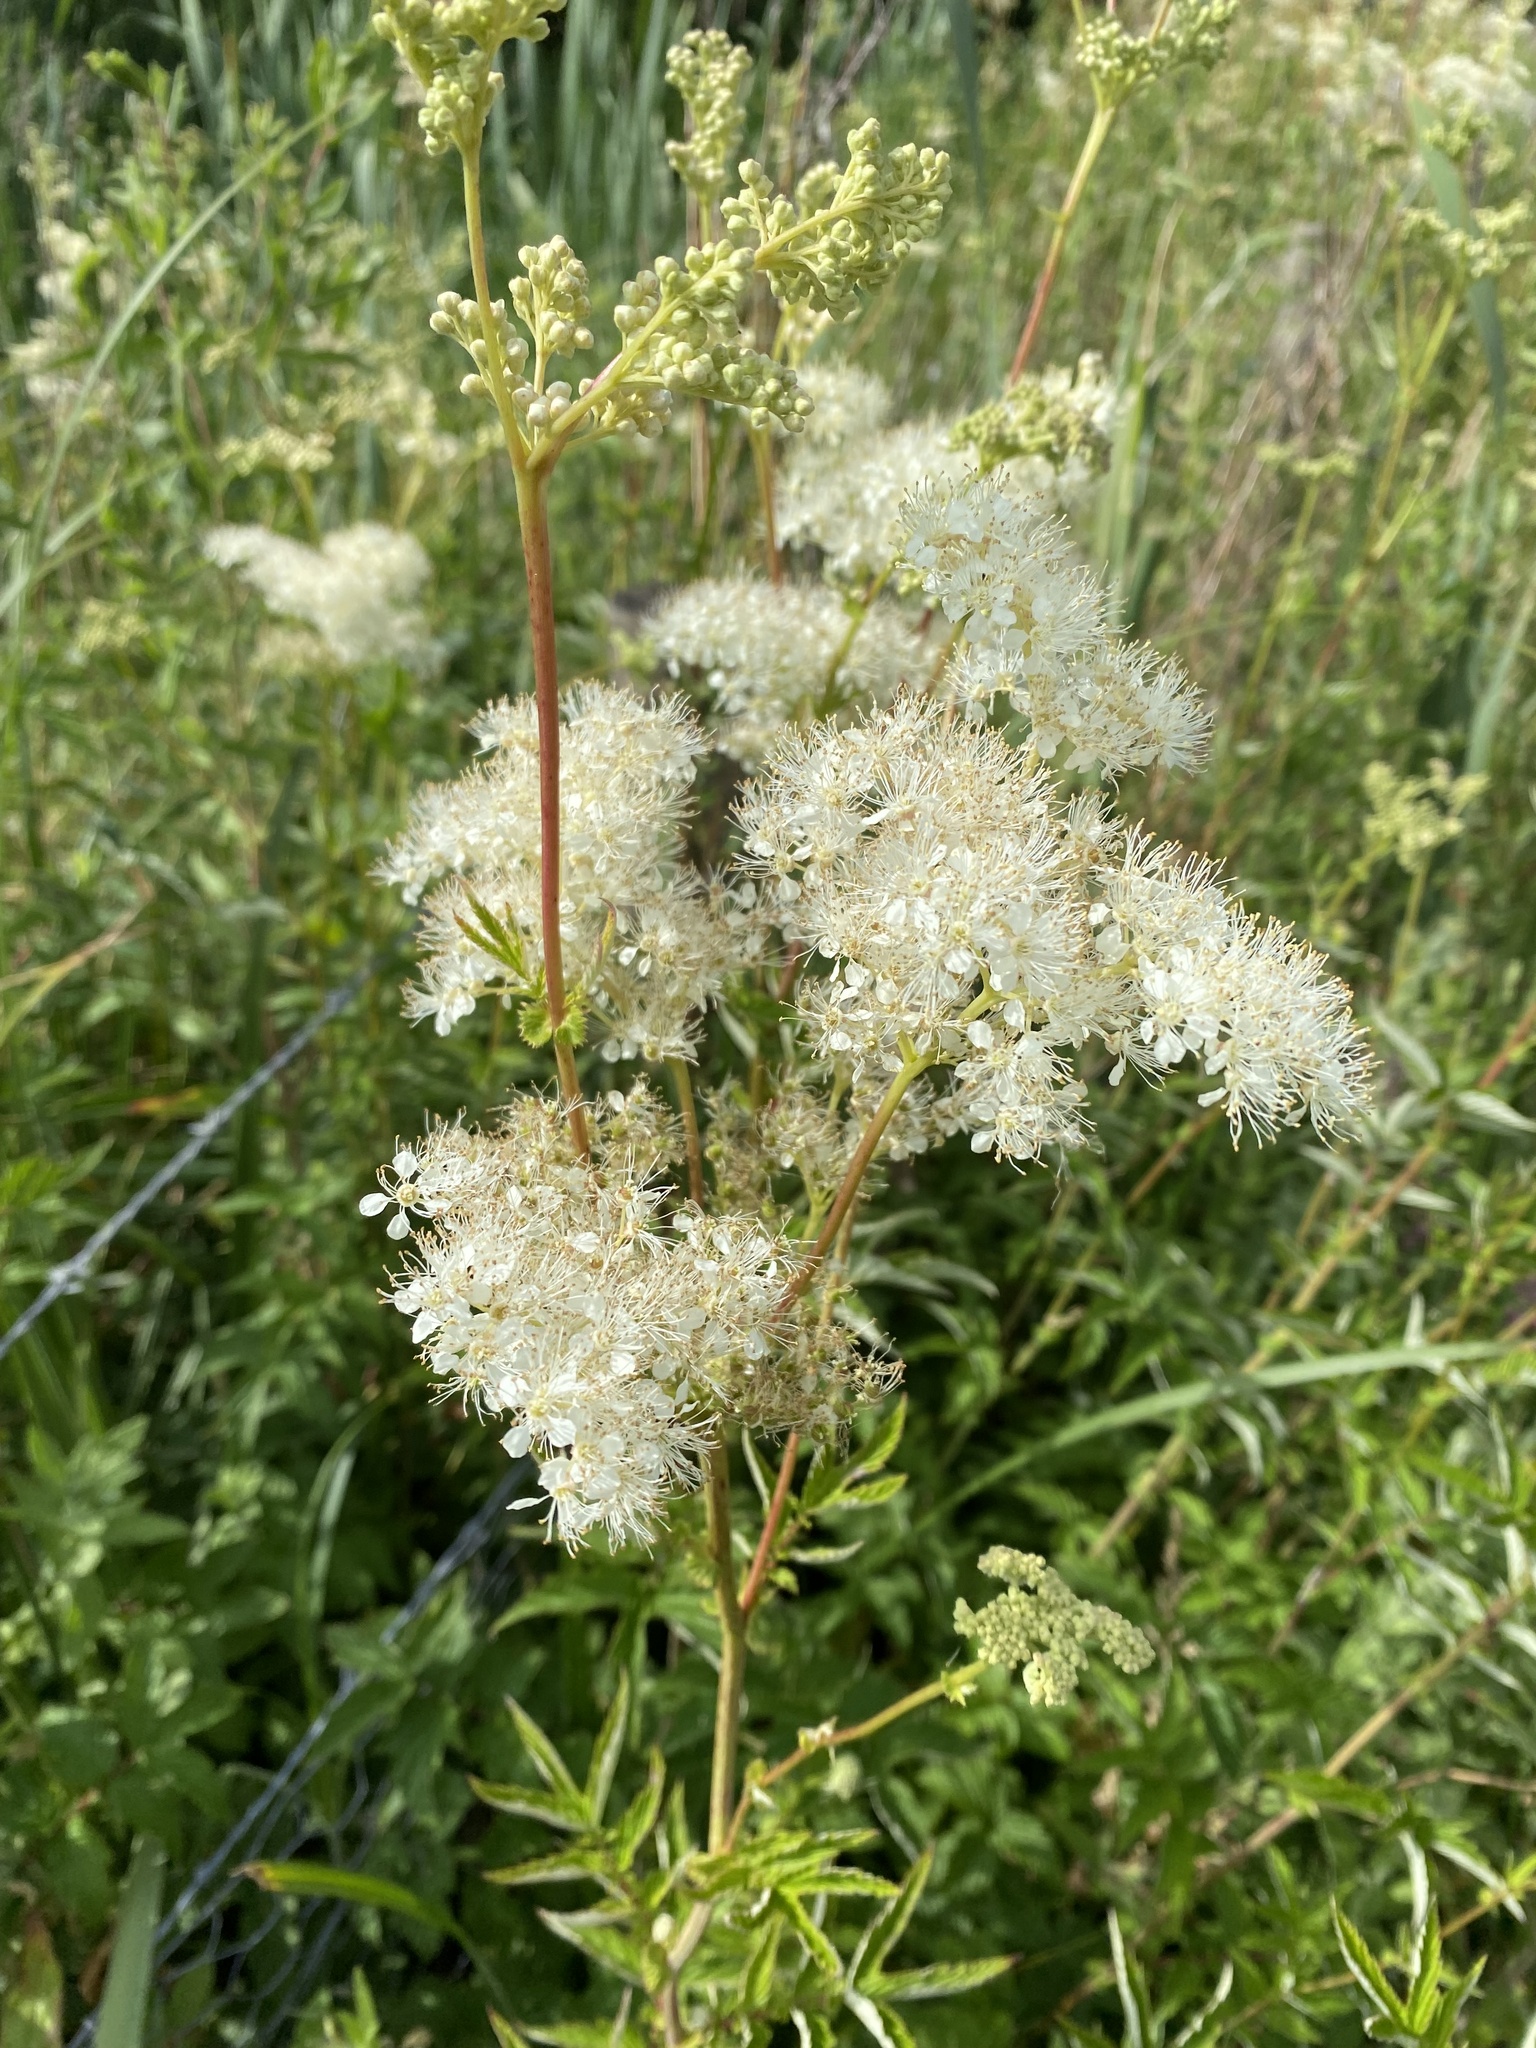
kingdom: Plantae
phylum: Tracheophyta
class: Magnoliopsida
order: Rosales
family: Rosaceae
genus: Filipendula
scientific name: Filipendula ulmaria
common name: Meadowsweet
